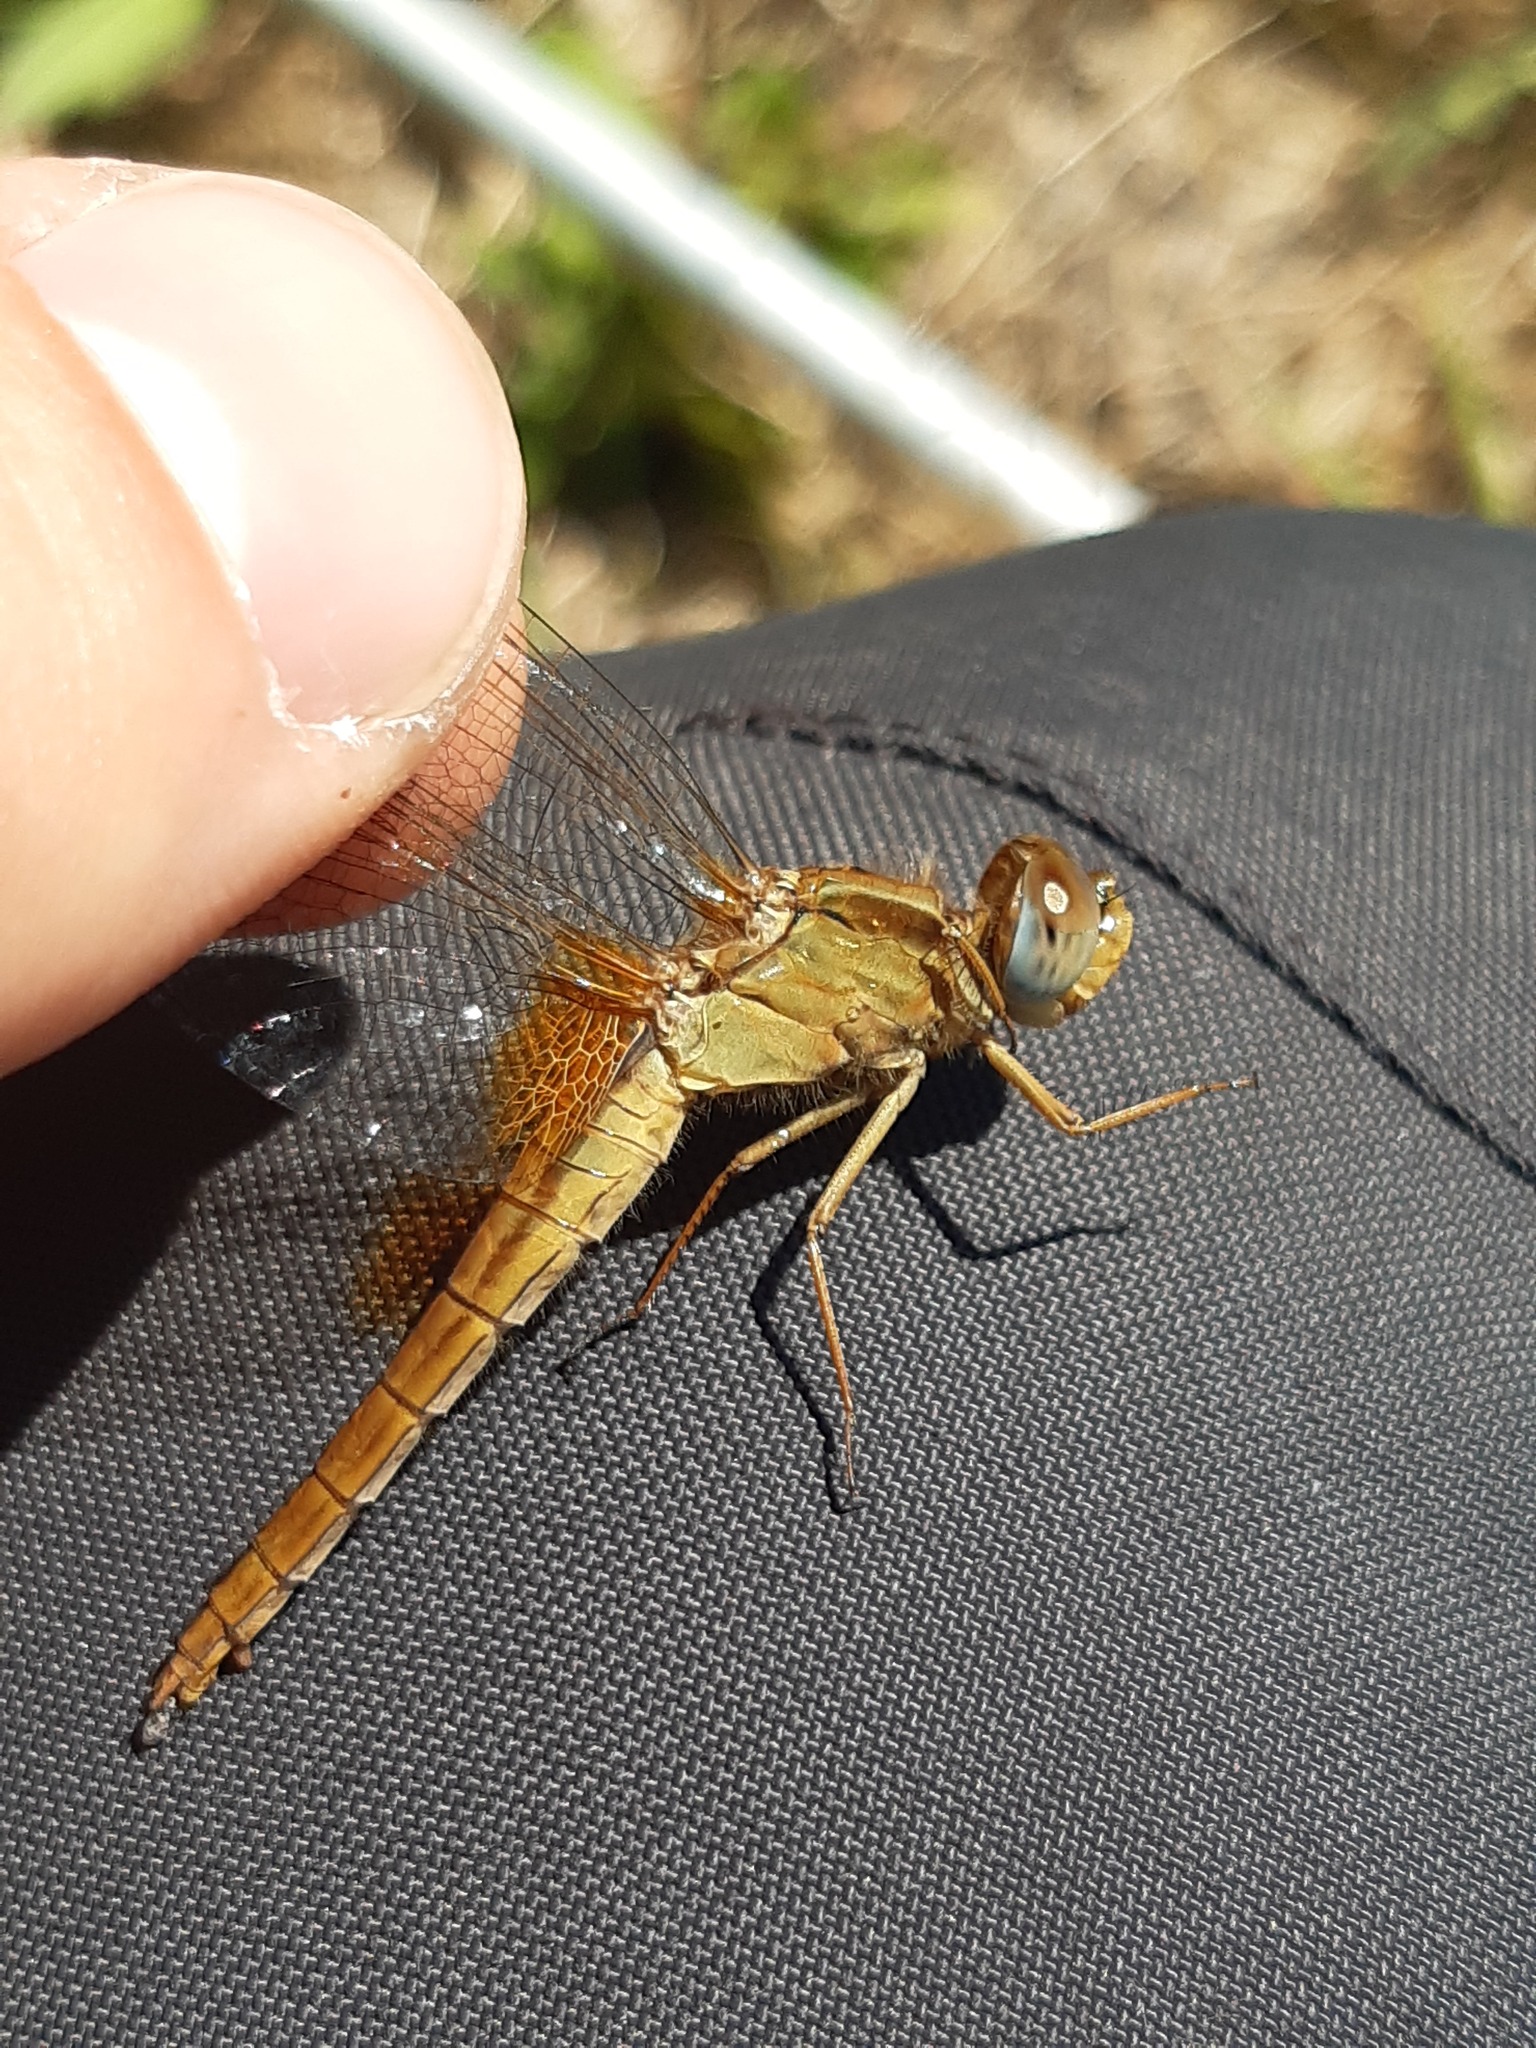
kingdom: Animalia
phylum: Arthropoda
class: Insecta
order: Odonata
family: Libellulidae
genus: Crocothemis
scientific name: Crocothemis erythraea
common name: Scarlet dragonfly
